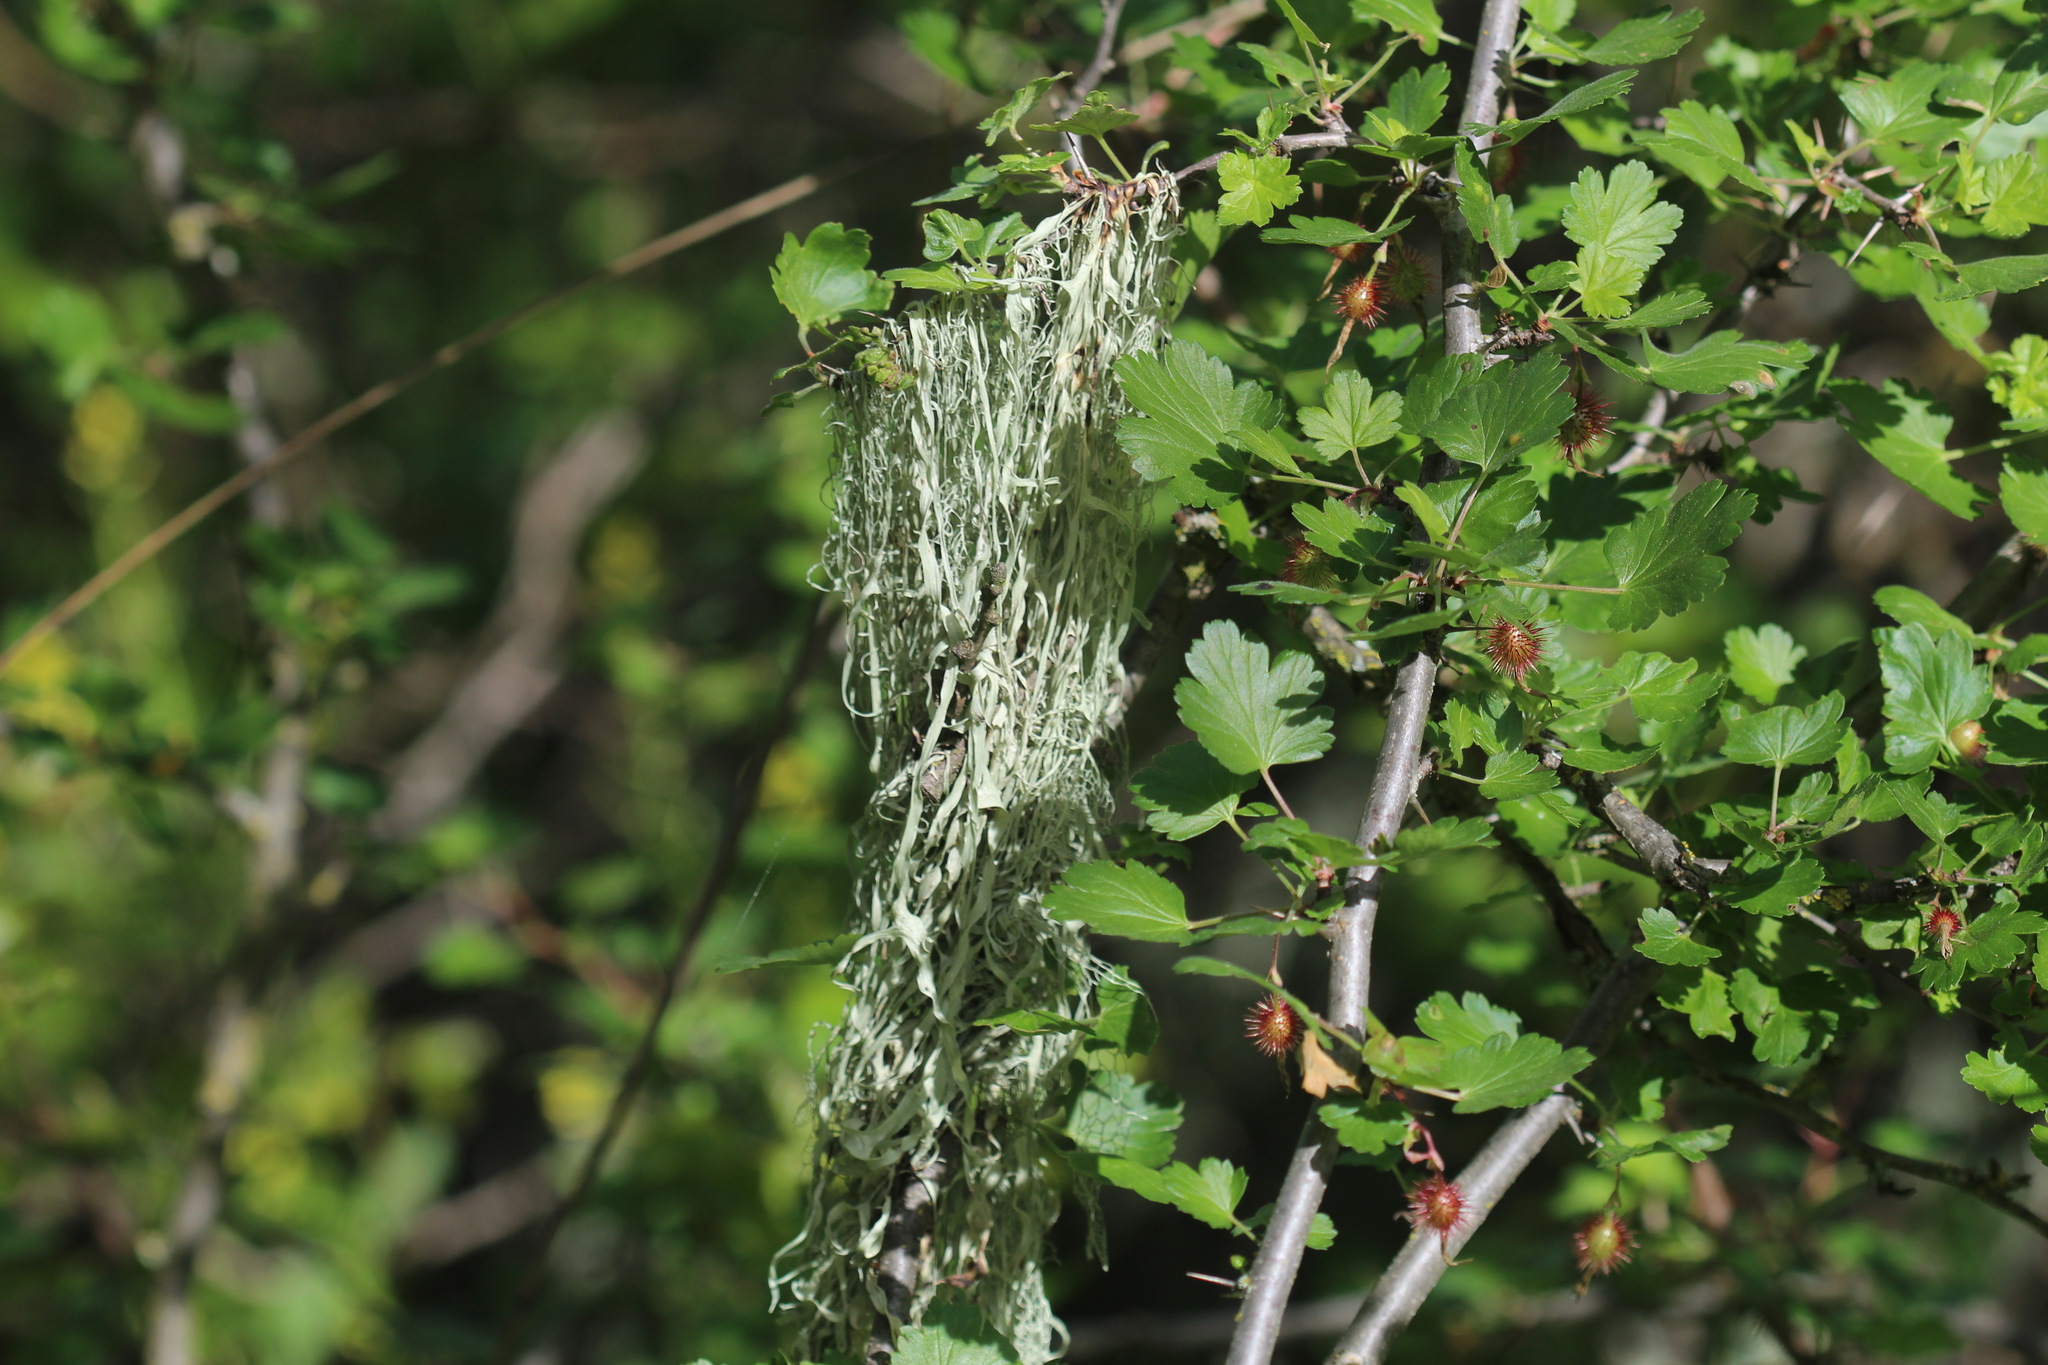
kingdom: Fungi
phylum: Ascomycota
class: Lecanoromycetes
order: Lecanorales
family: Ramalinaceae
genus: Ramalina
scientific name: Ramalina menziesii
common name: Lace lichen
